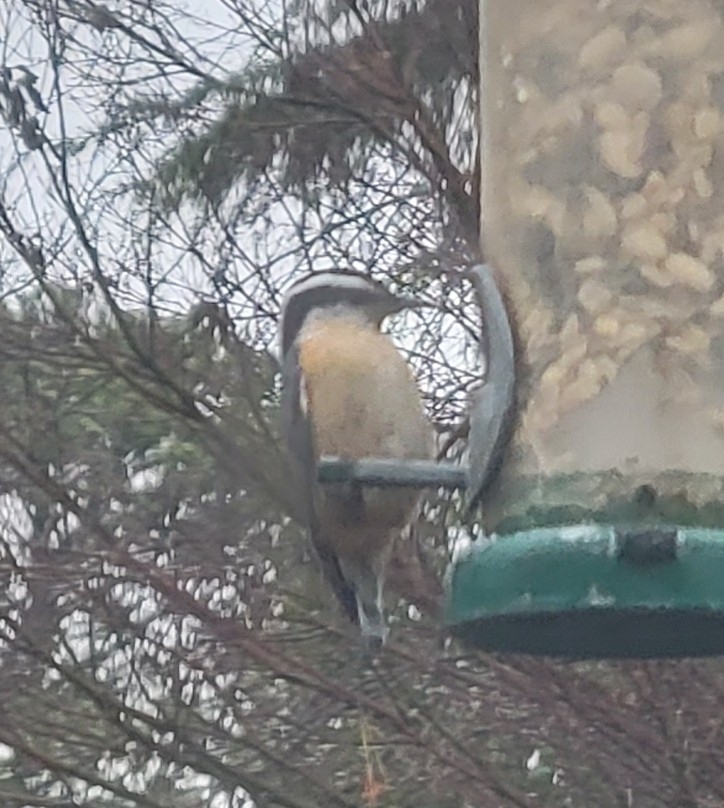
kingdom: Animalia
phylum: Chordata
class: Aves
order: Passeriformes
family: Sittidae
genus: Sitta
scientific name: Sitta canadensis
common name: Red-breasted nuthatch
